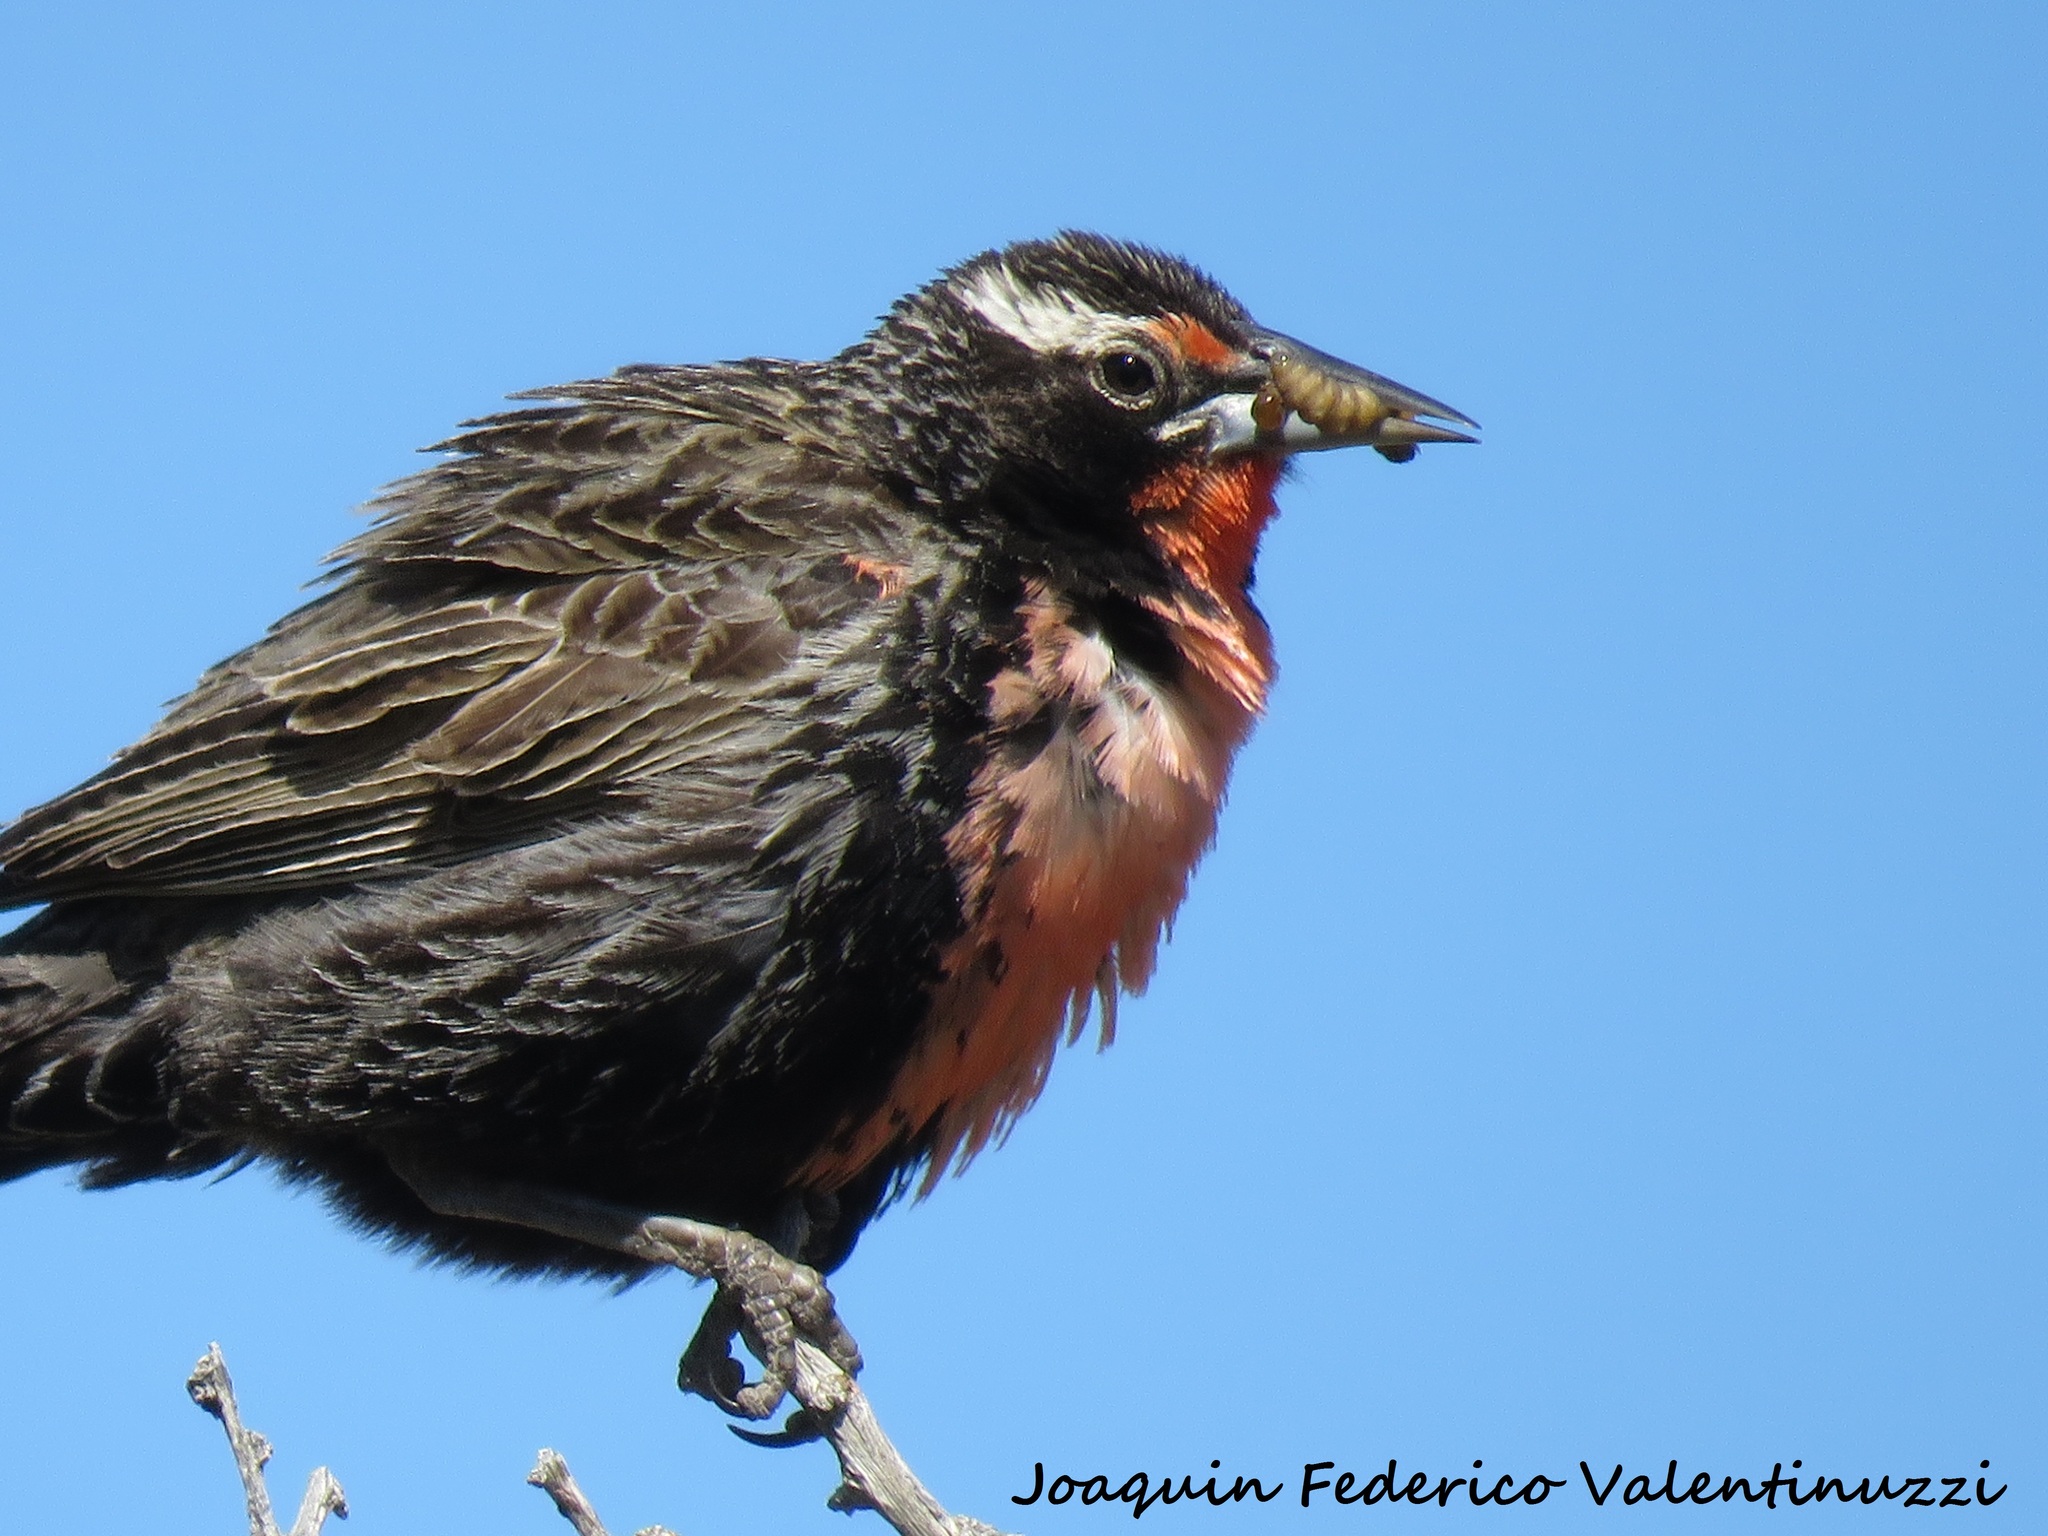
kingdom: Animalia
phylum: Chordata
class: Aves
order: Passeriformes
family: Icteridae
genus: Sturnella
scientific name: Sturnella loyca
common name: Long-tailed meadowlark
